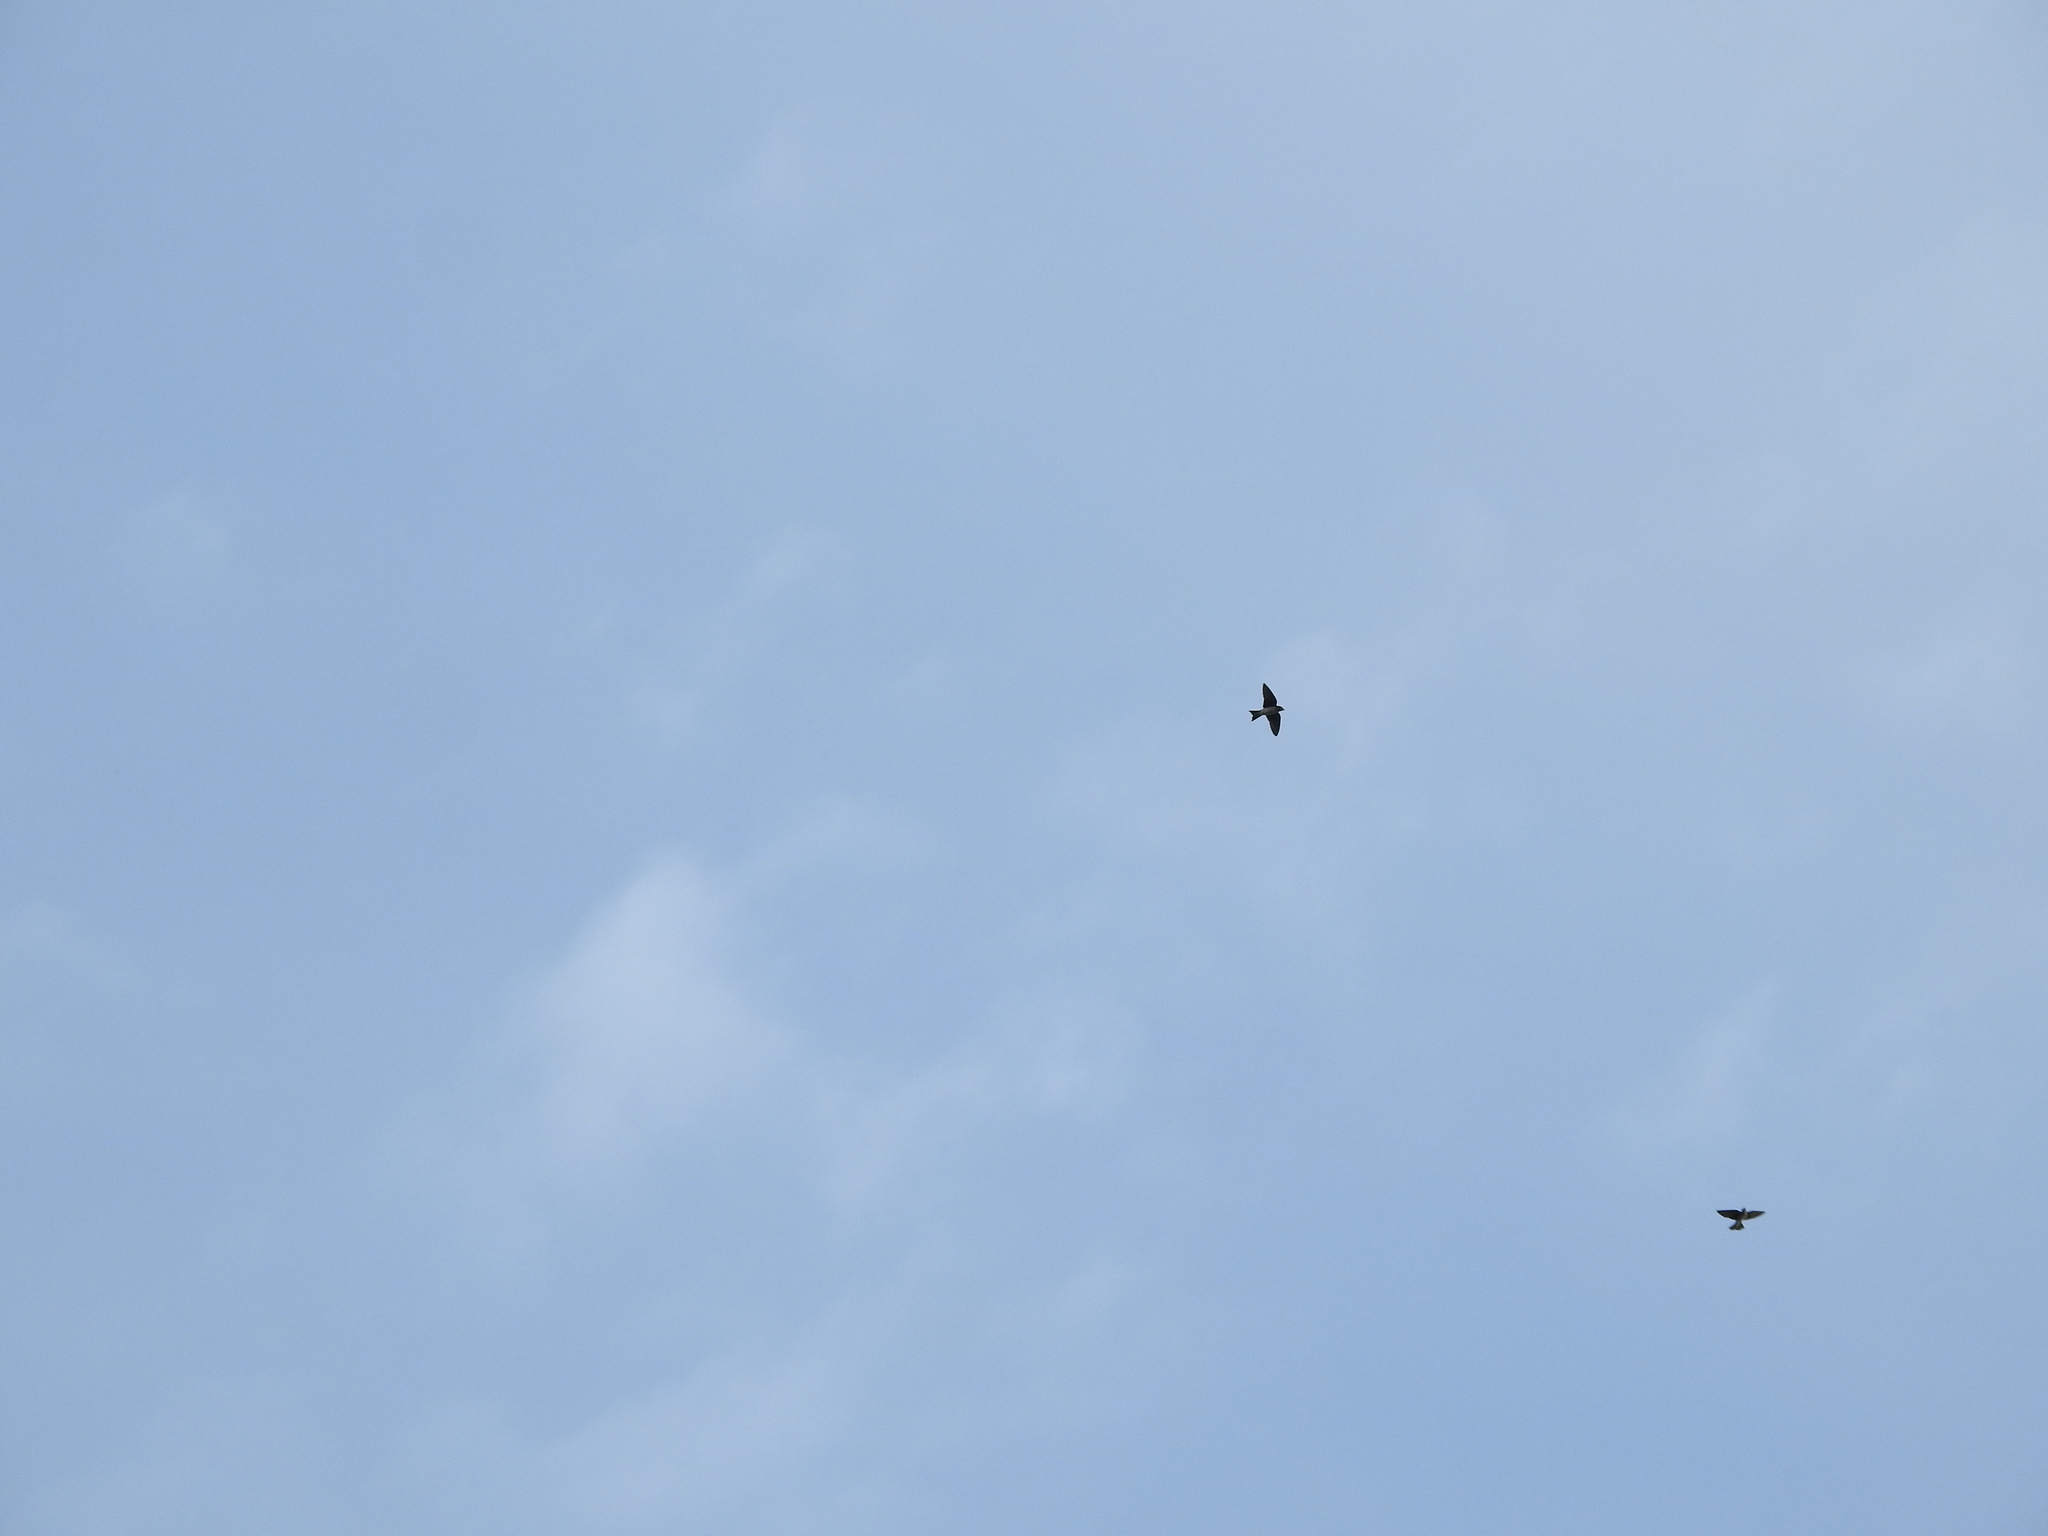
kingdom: Animalia
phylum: Chordata
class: Aves
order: Passeriformes
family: Hirundinidae
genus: Progne
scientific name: Progne chalybea
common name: Grey-breasted martin
